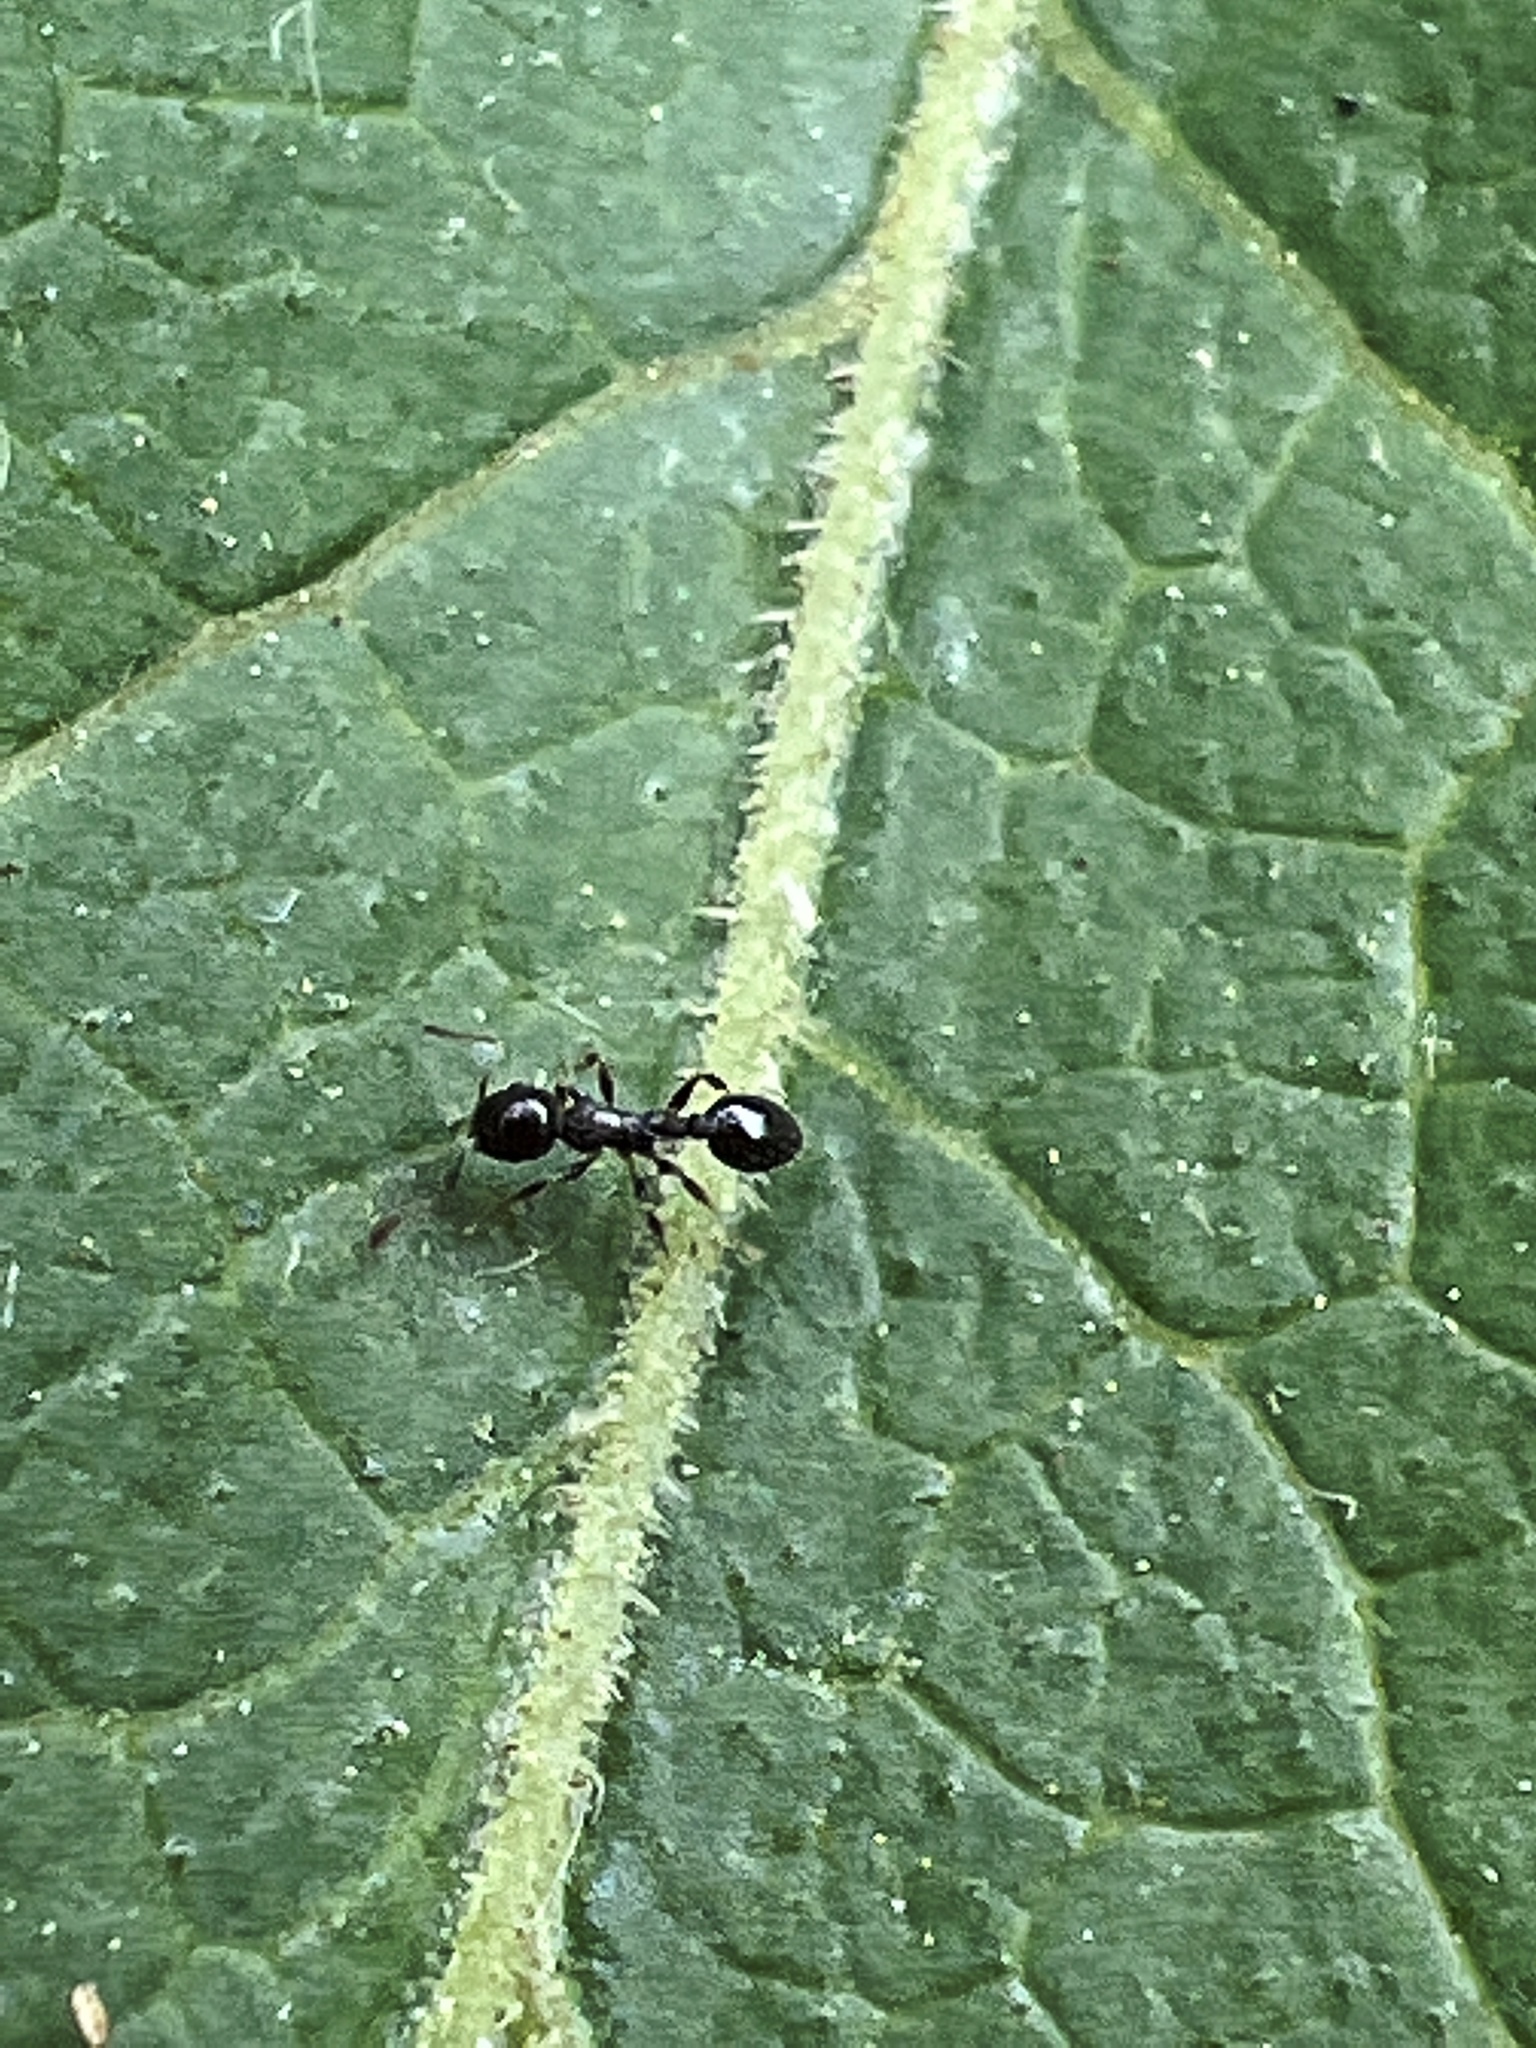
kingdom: Animalia
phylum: Arthropoda
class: Insecta
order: Hymenoptera
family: Formicidae
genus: Temnothorax
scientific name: Temnothorax longispinosus
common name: Long-spined acorn ant
